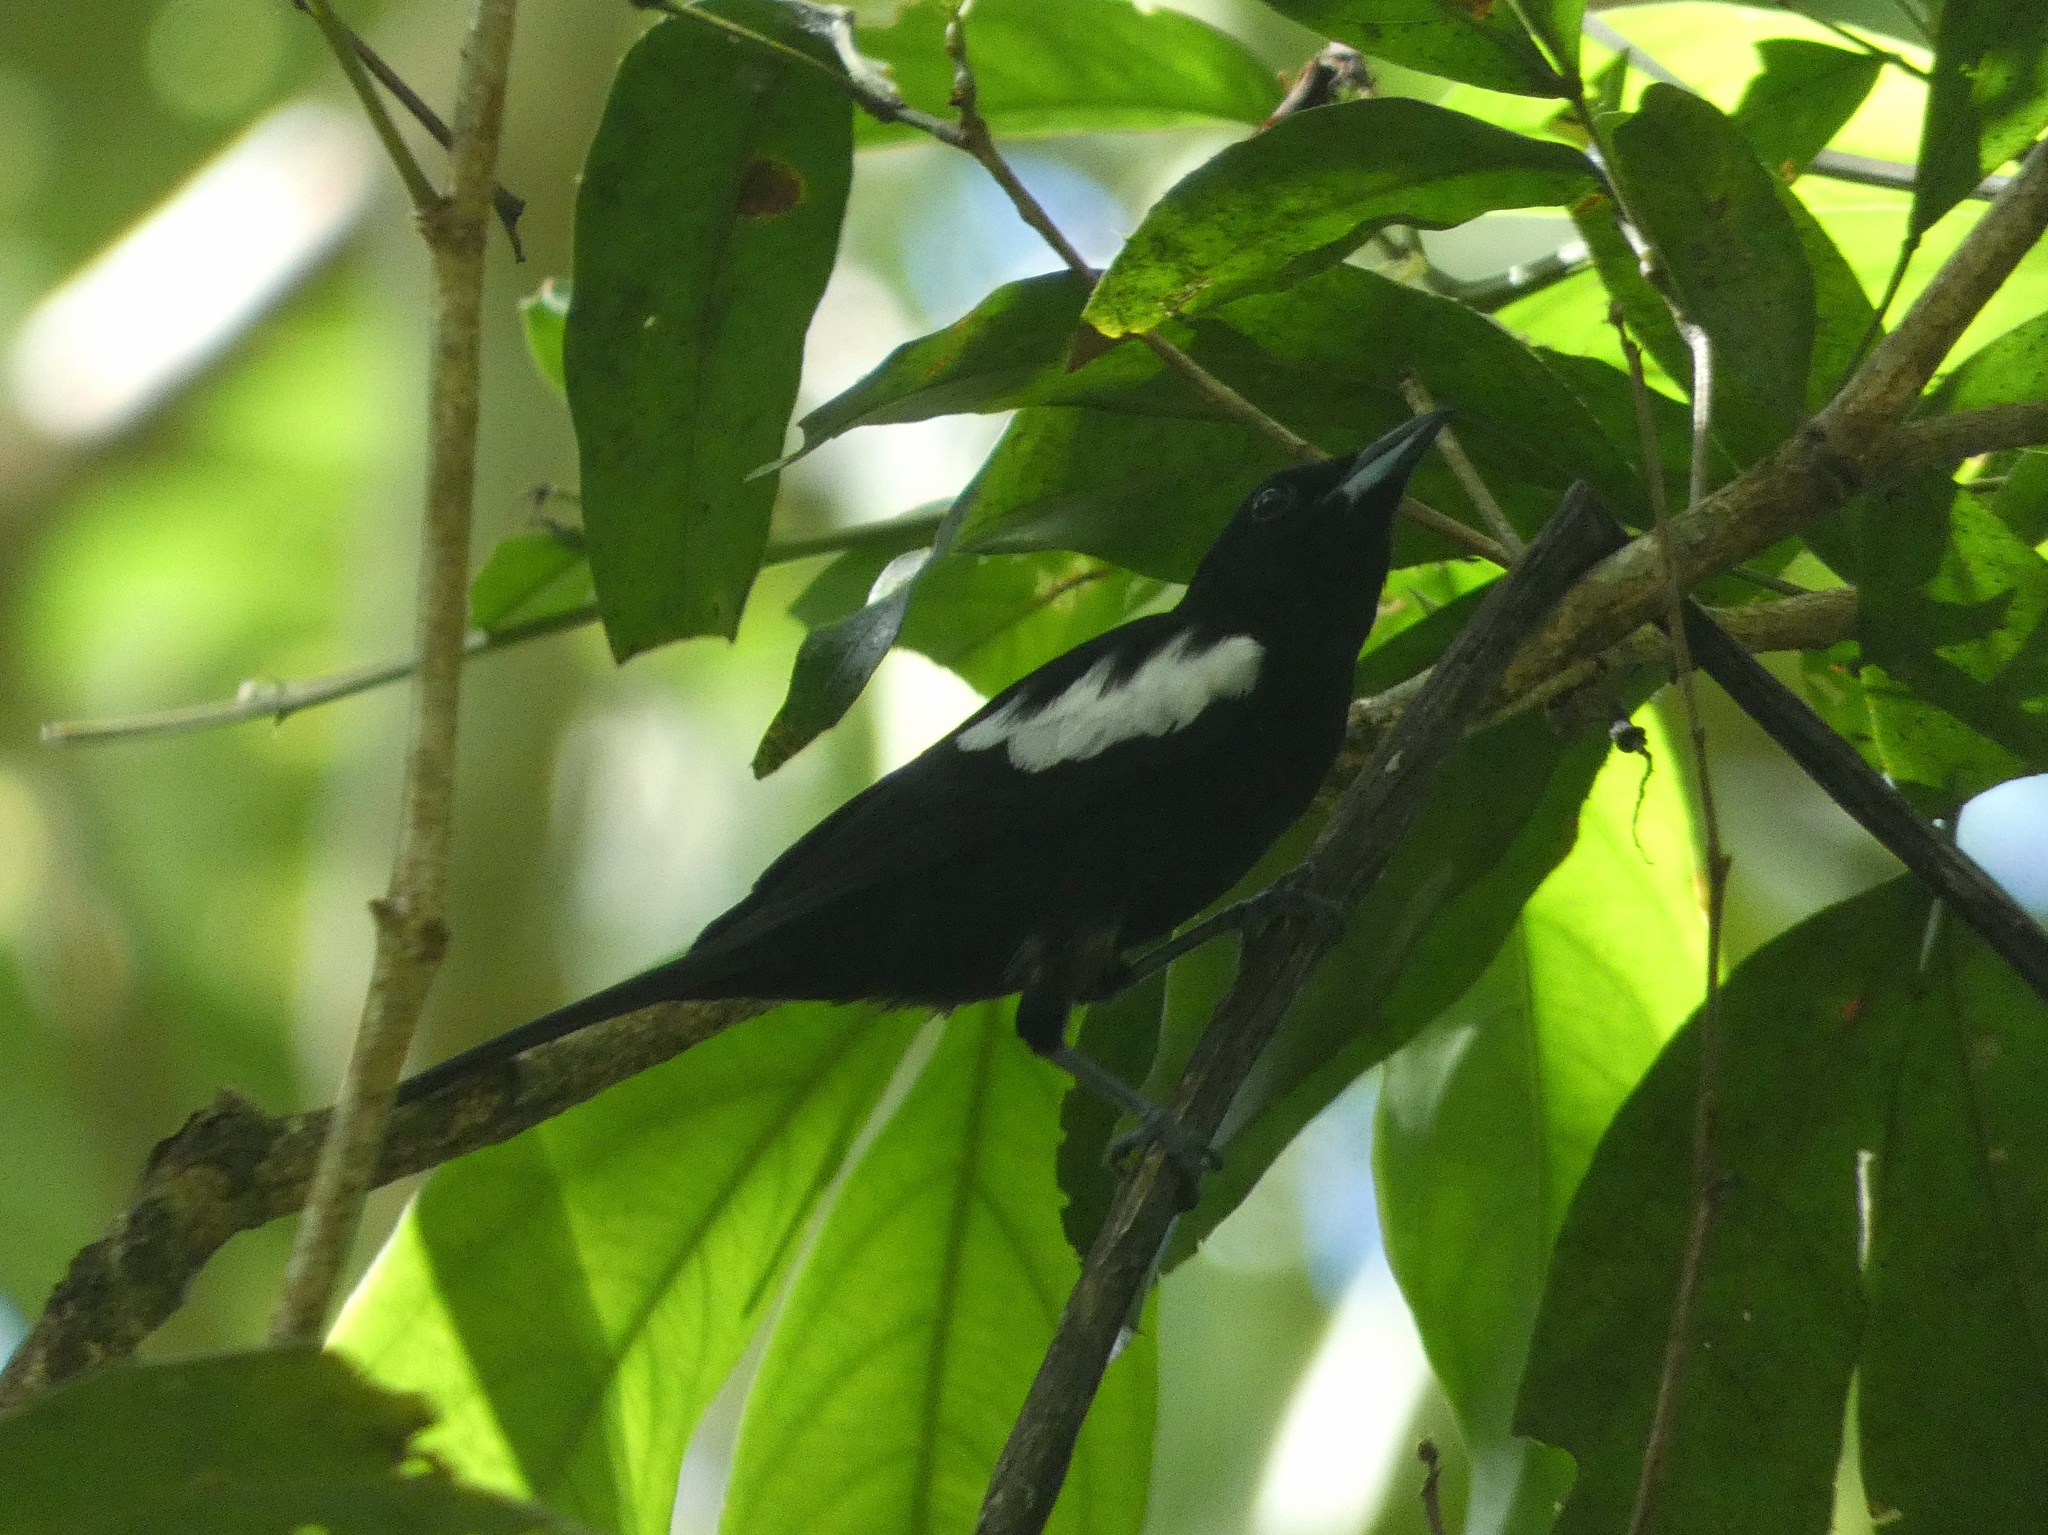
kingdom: Animalia
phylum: Chordata
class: Aves
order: Passeriformes
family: Thraupidae
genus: Loriotus
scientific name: Loriotus luctuosus
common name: White-shouldered tanager
